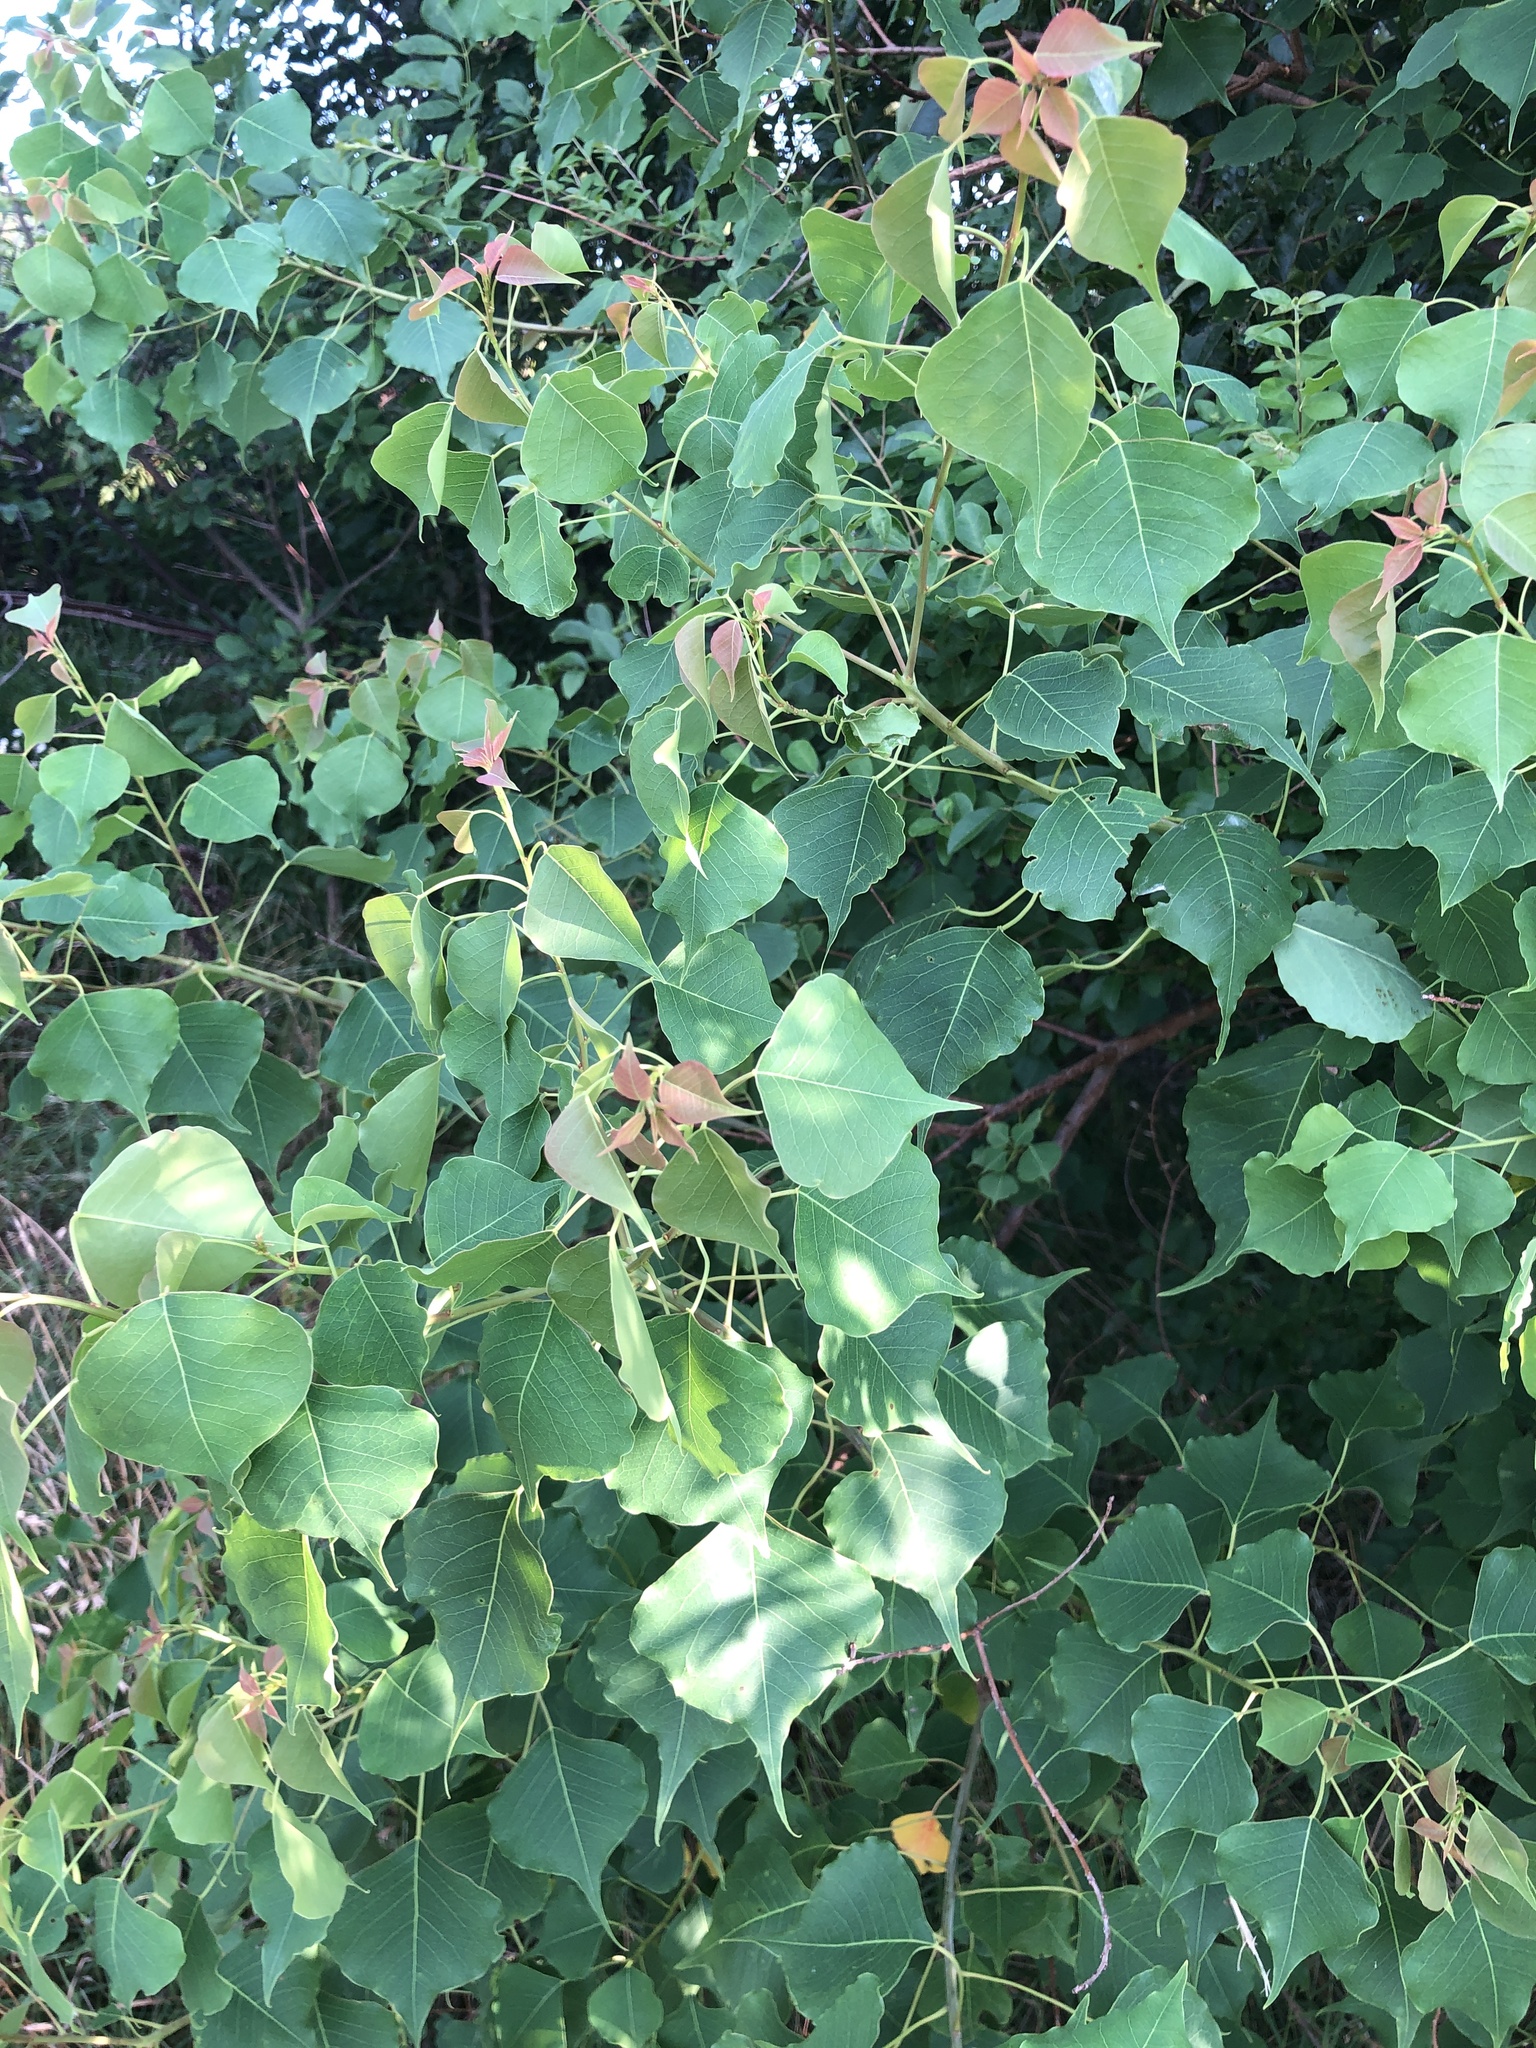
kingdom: Plantae
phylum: Tracheophyta
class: Magnoliopsida
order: Malpighiales
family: Euphorbiaceae
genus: Triadica
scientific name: Triadica sebifera
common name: Chinese tallow
